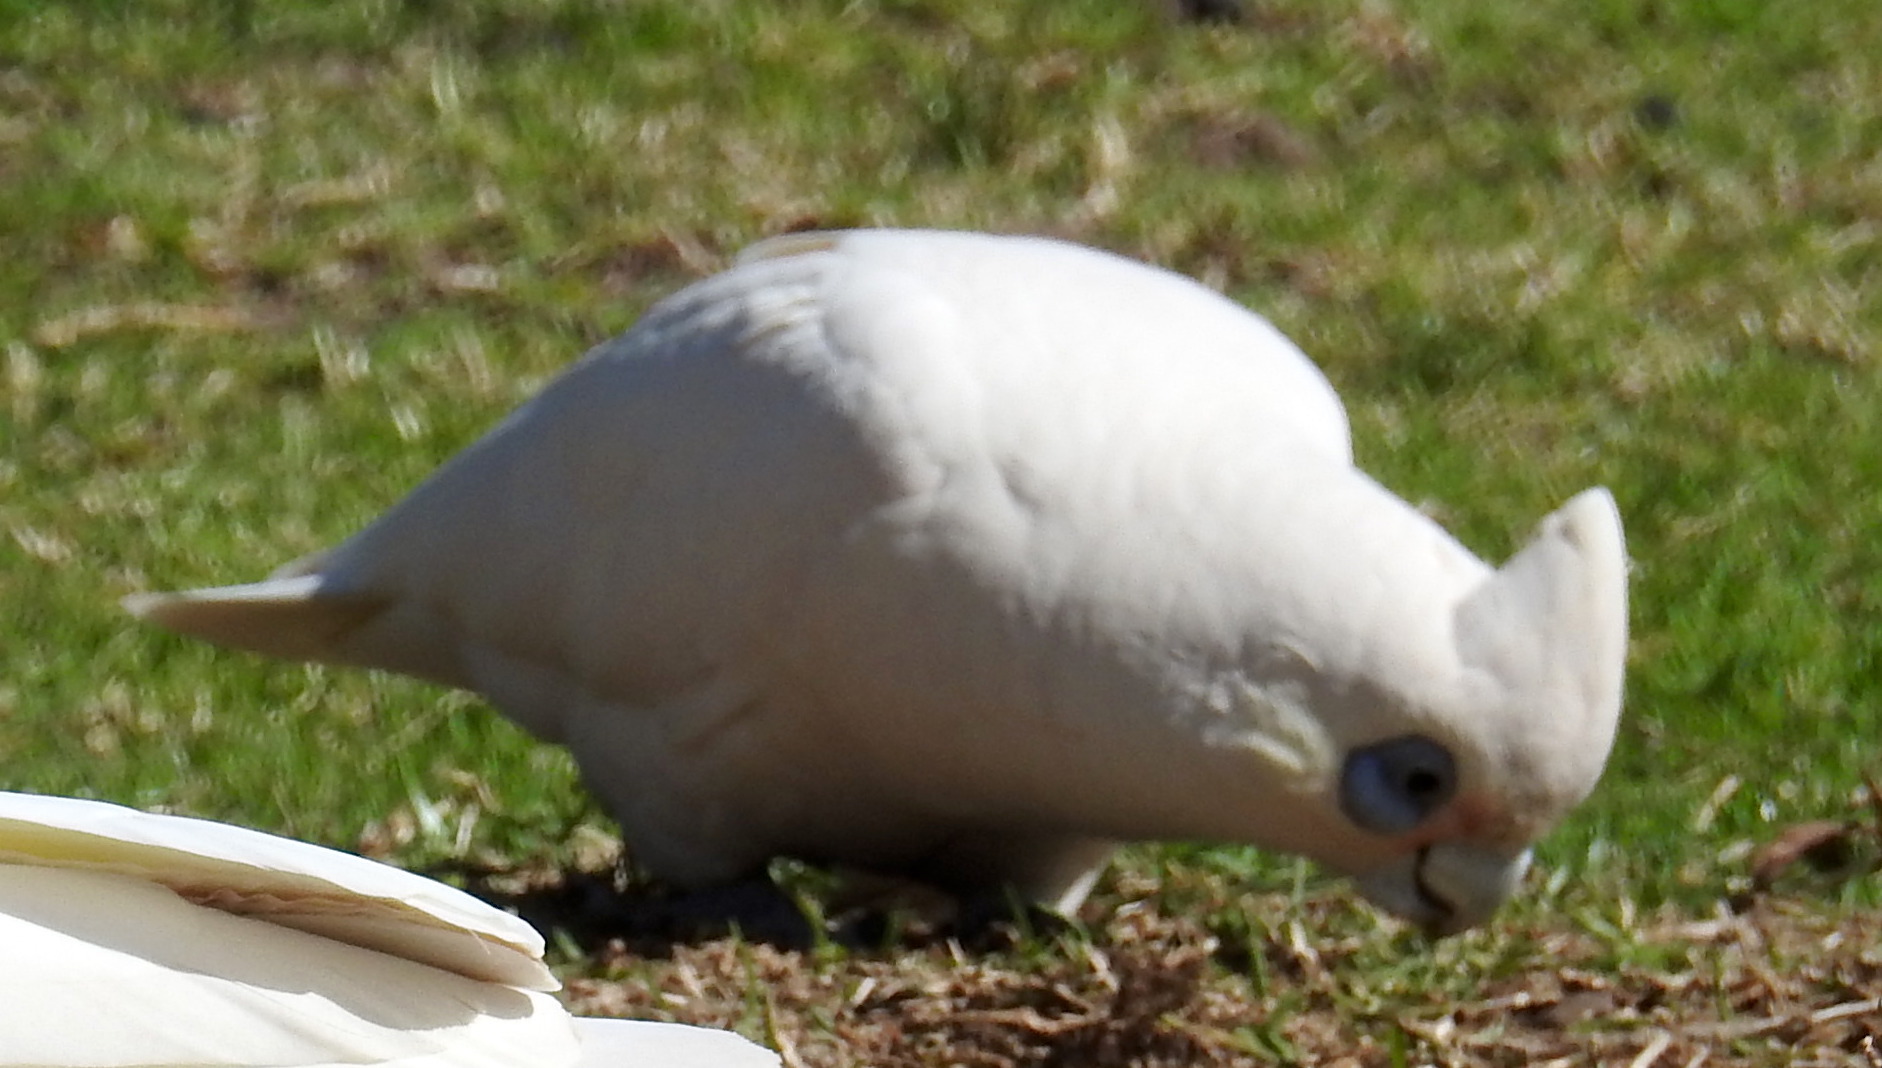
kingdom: Animalia
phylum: Chordata
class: Aves
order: Psittaciformes
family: Psittacidae
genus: Cacatua
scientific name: Cacatua sanguinea
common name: Little corella
